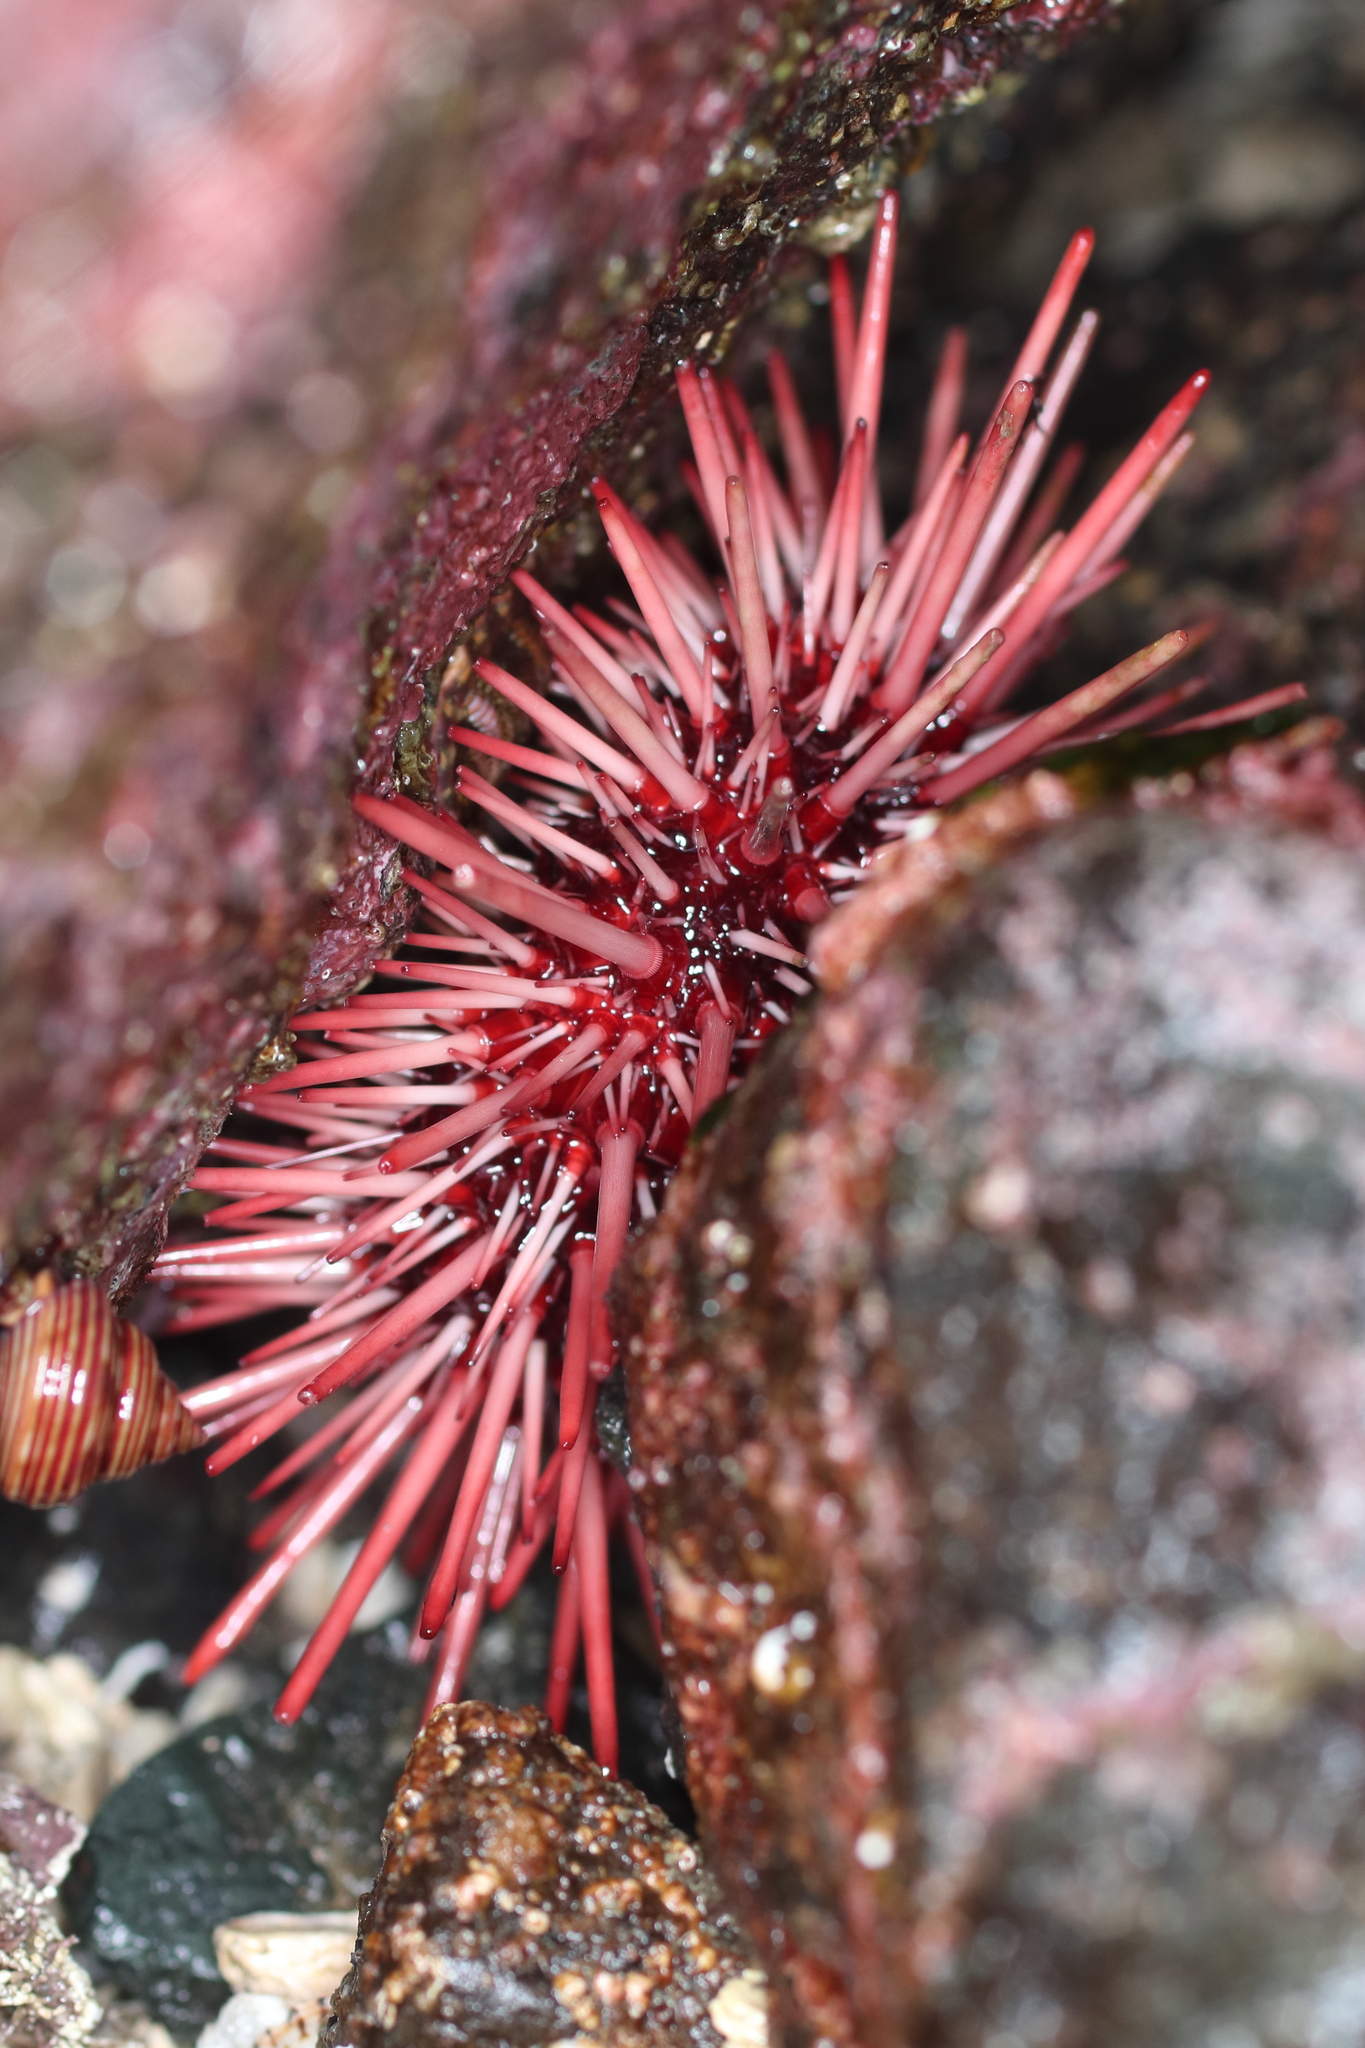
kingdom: Animalia
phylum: Echinodermata
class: Echinoidea
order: Camarodonta
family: Strongylocentrotidae
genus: Mesocentrotus
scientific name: Mesocentrotus franciscanus
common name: Red sea urchin
